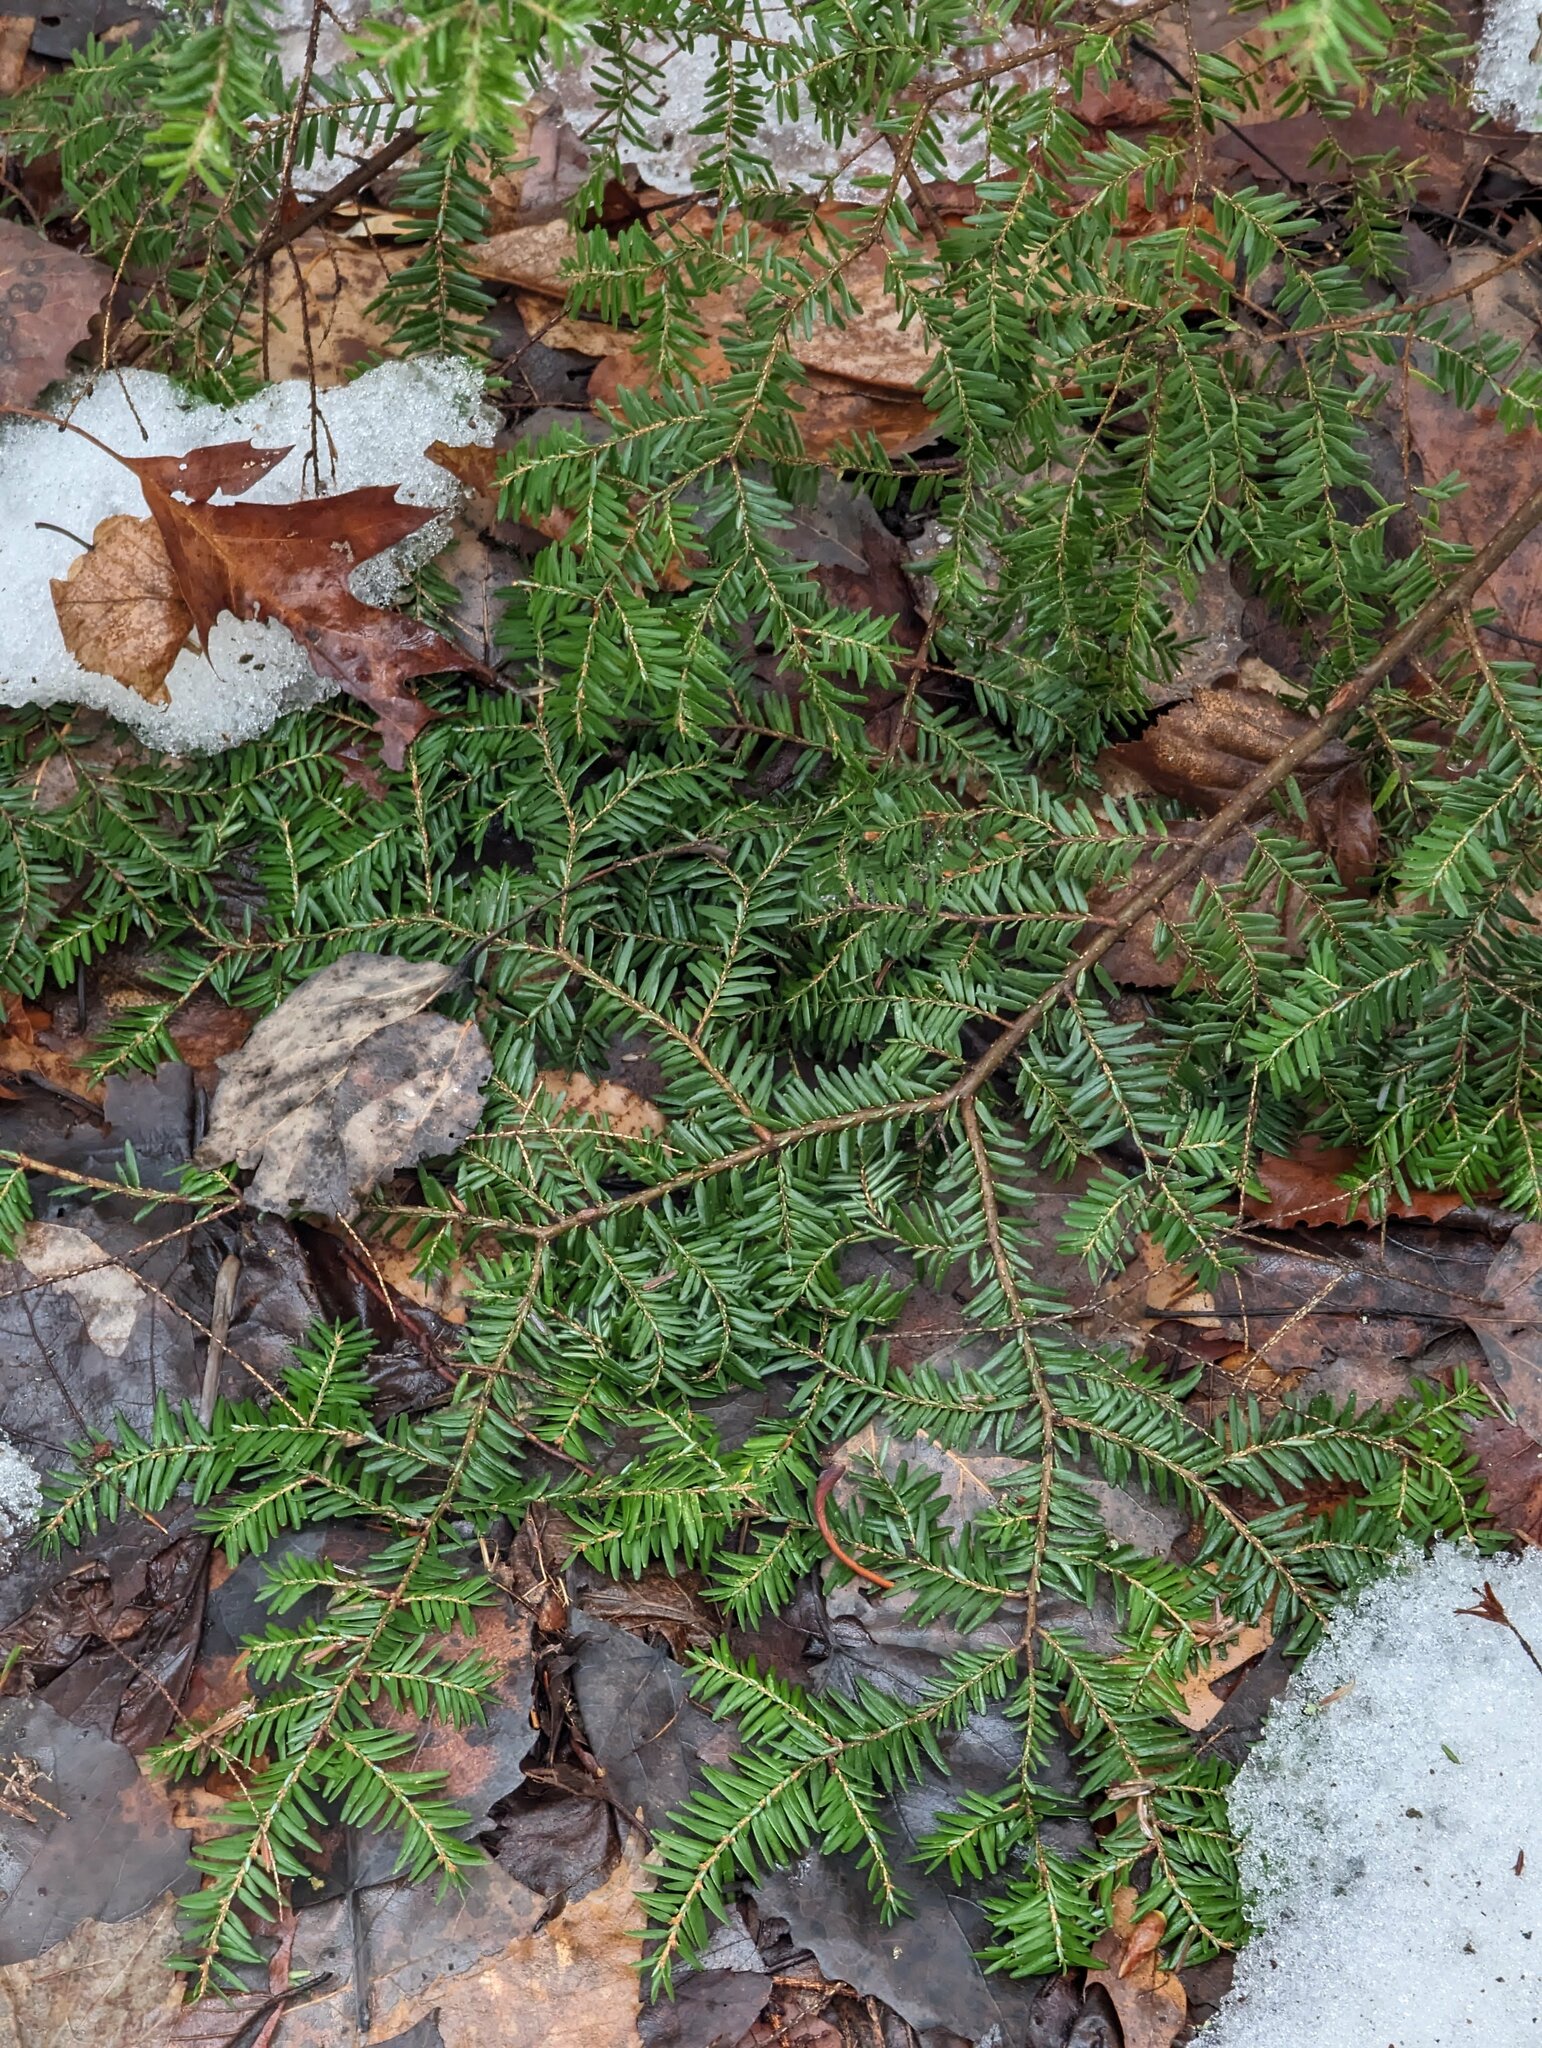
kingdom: Plantae
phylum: Tracheophyta
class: Pinopsida
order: Pinales
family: Pinaceae
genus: Tsuga
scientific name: Tsuga canadensis
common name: Eastern hemlock
